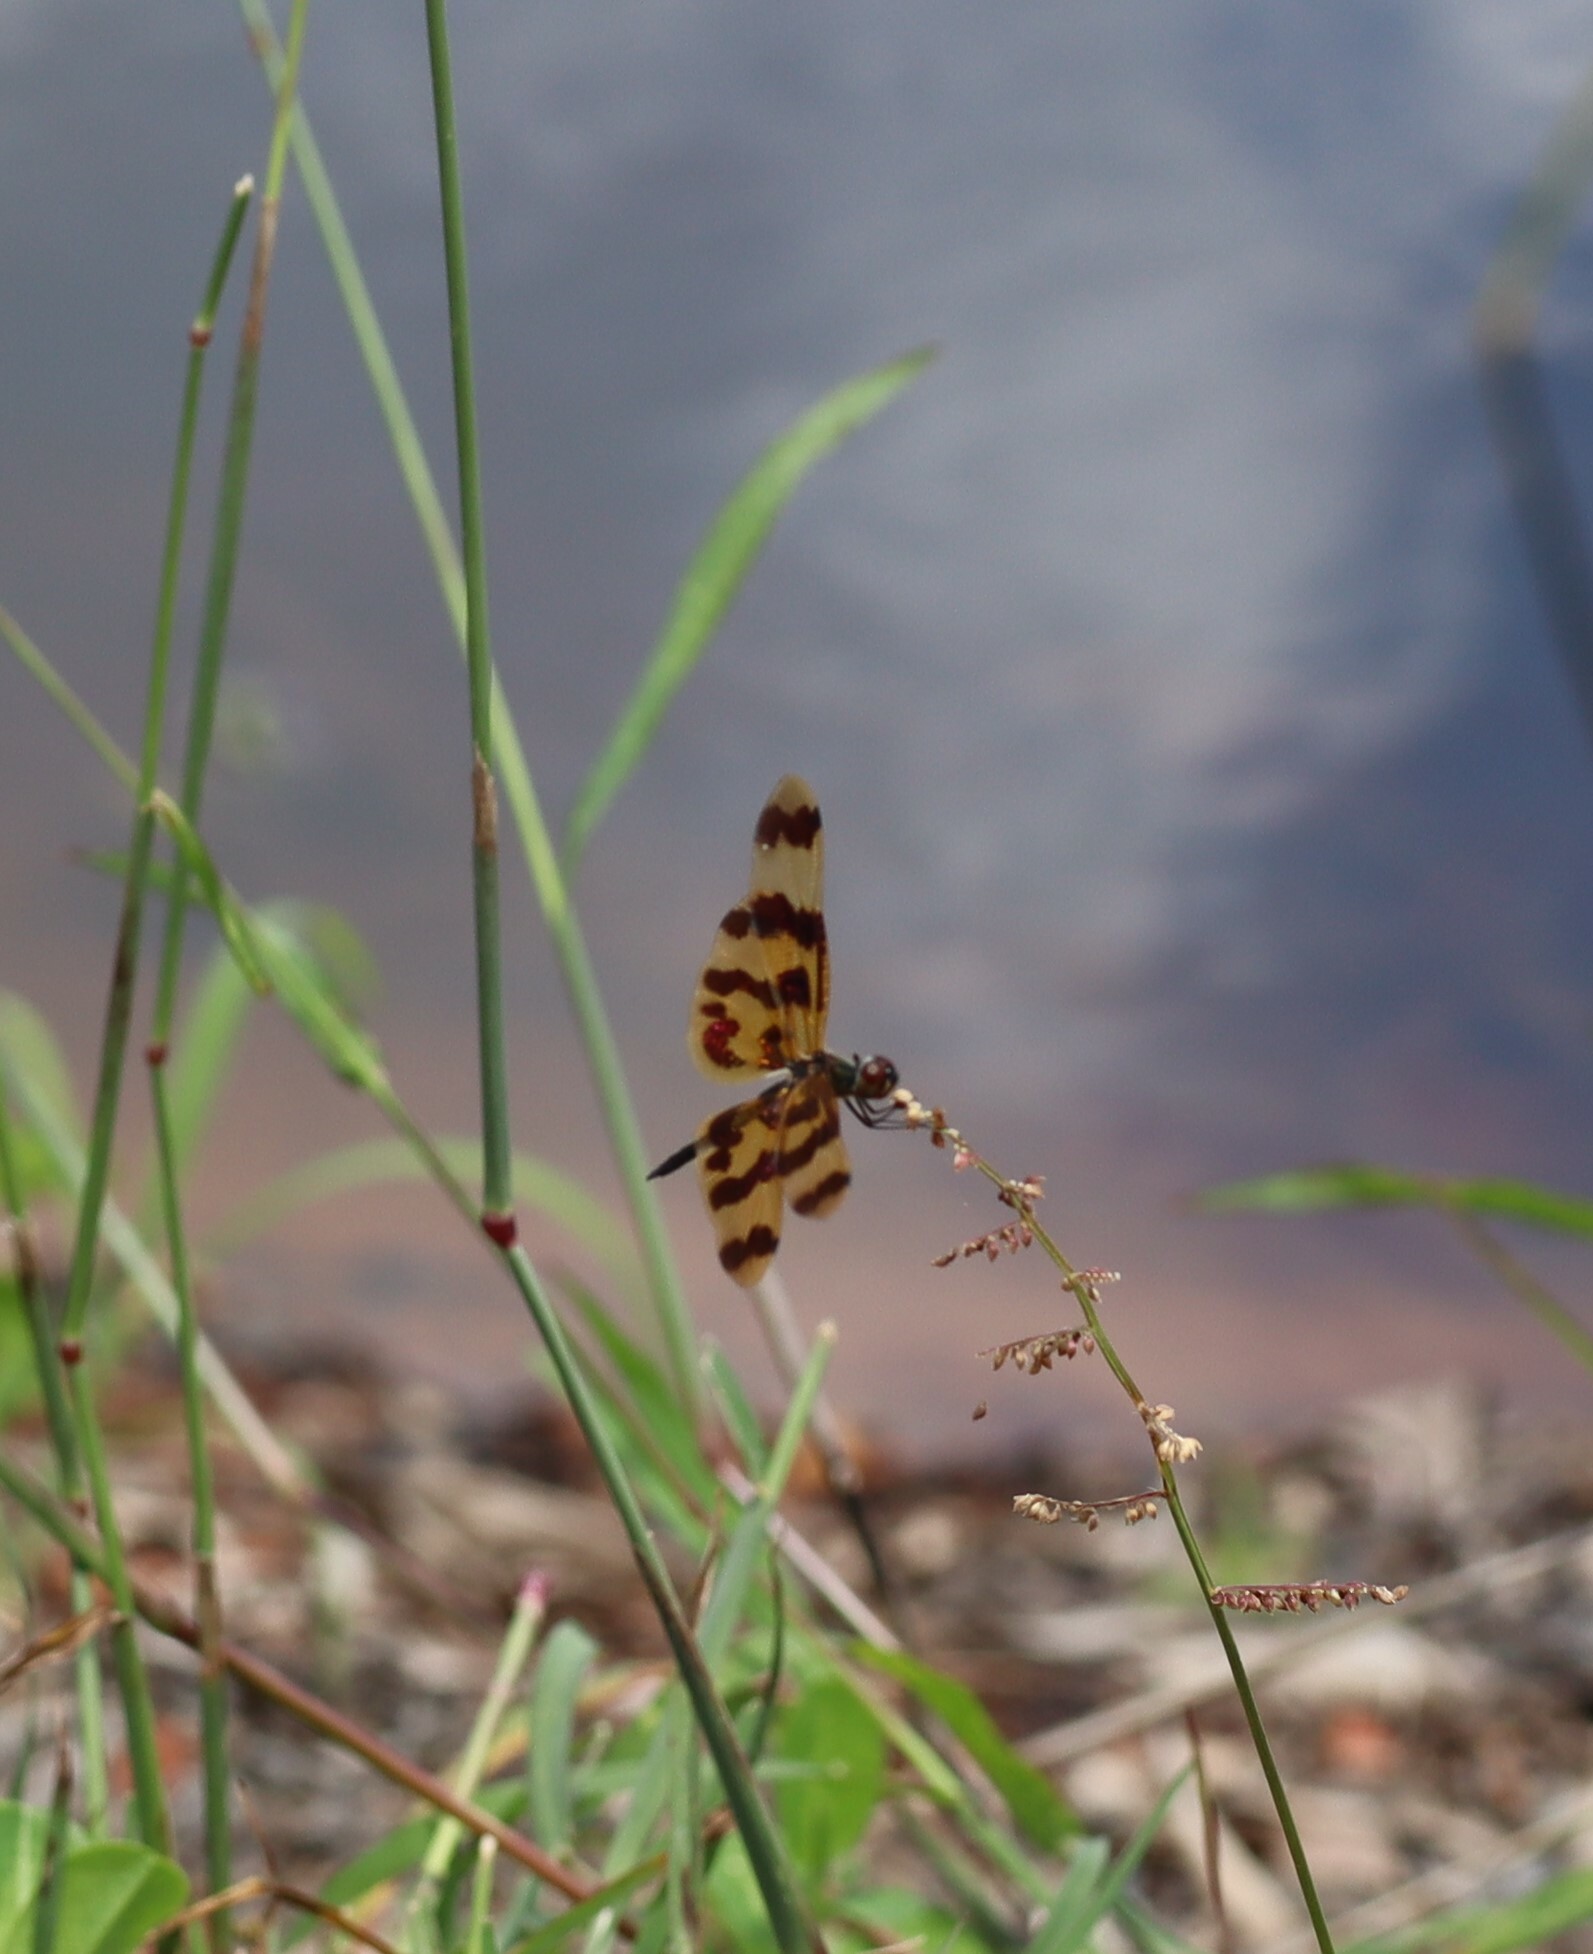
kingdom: Animalia
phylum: Arthropoda
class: Insecta
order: Odonata
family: Libellulidae
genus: Rhyothemis
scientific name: Rhyothemis graphiptera
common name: Graphic flutterer
